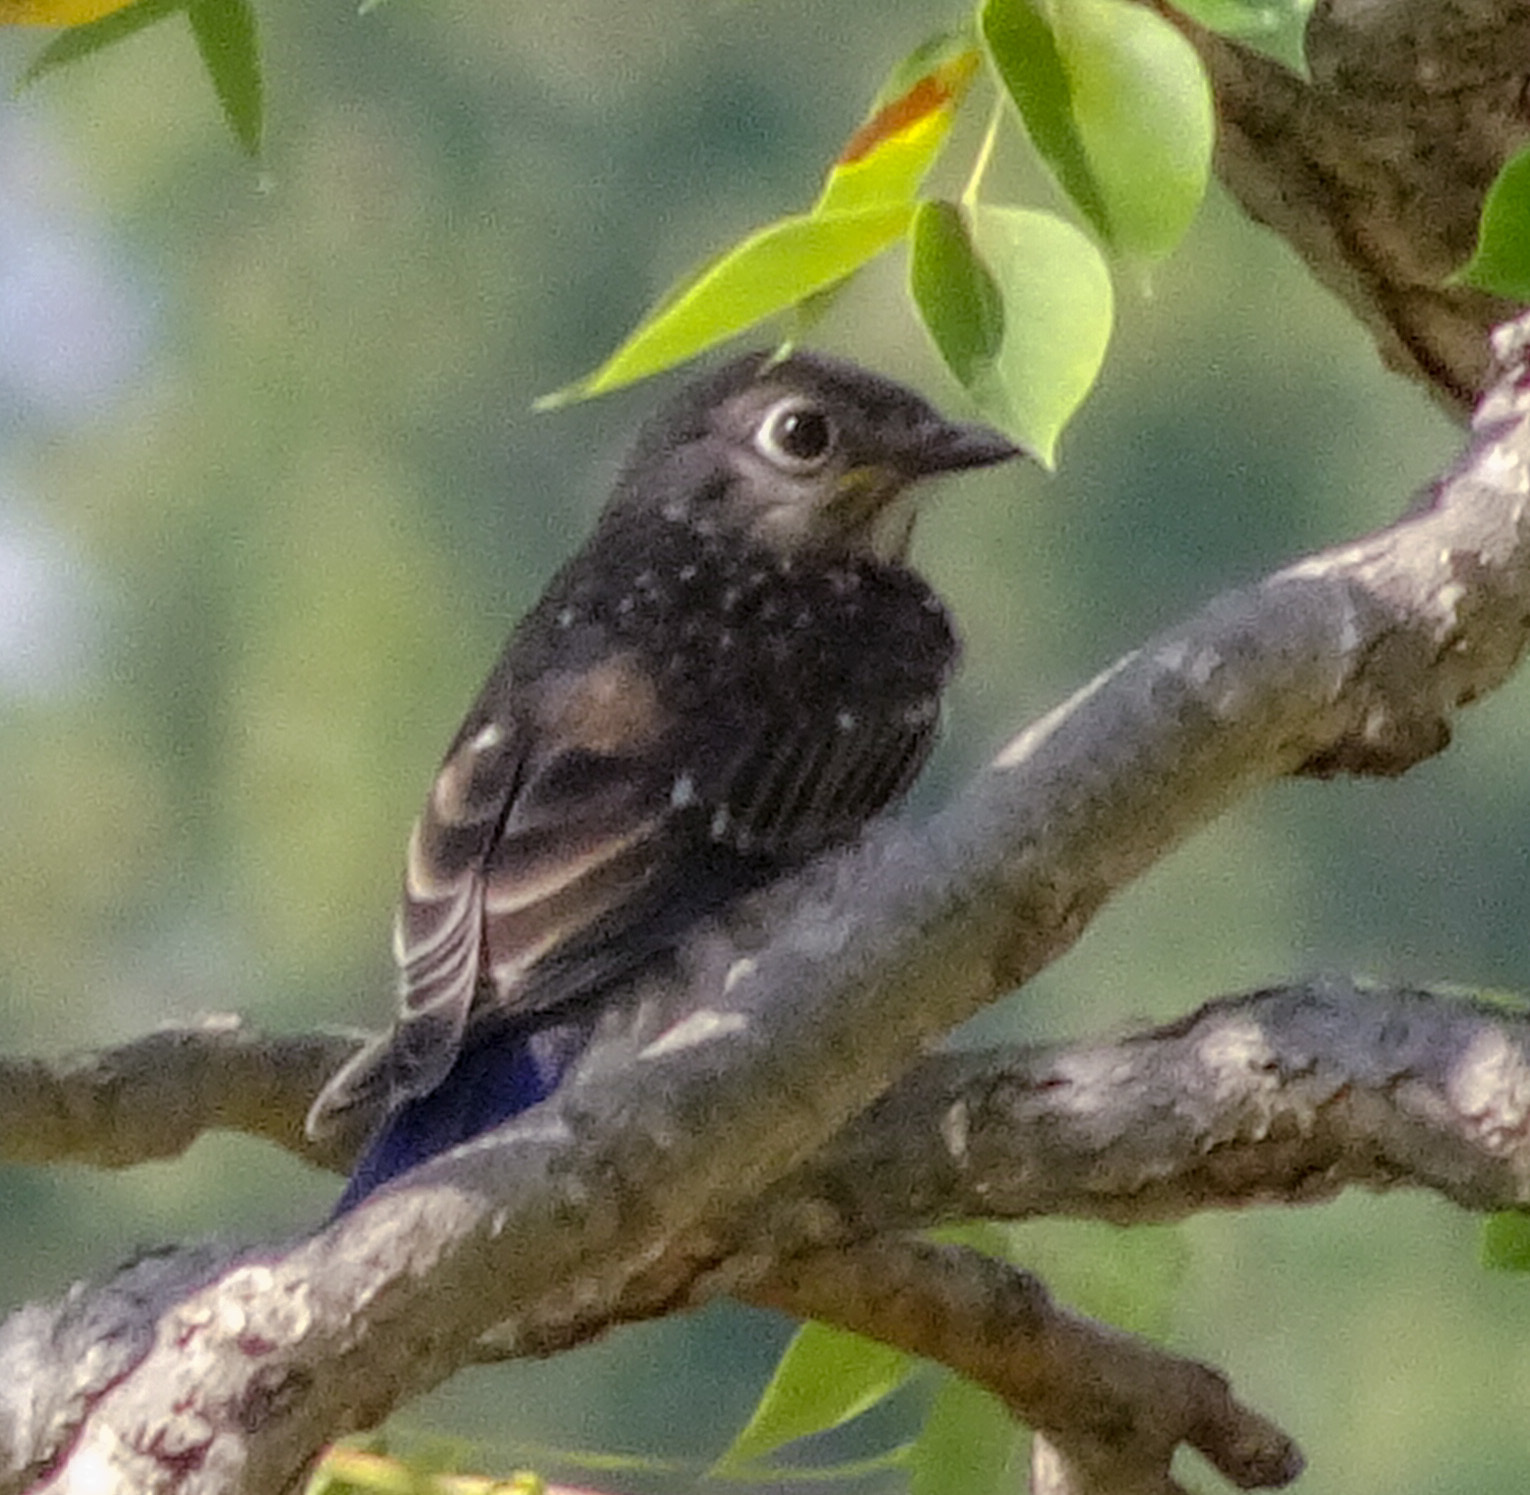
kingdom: Animalia
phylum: Chordata
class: Aves
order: Passeriformes
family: Turdidae
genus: Sialia
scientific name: Sialia sialis
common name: Eastern bluebird
